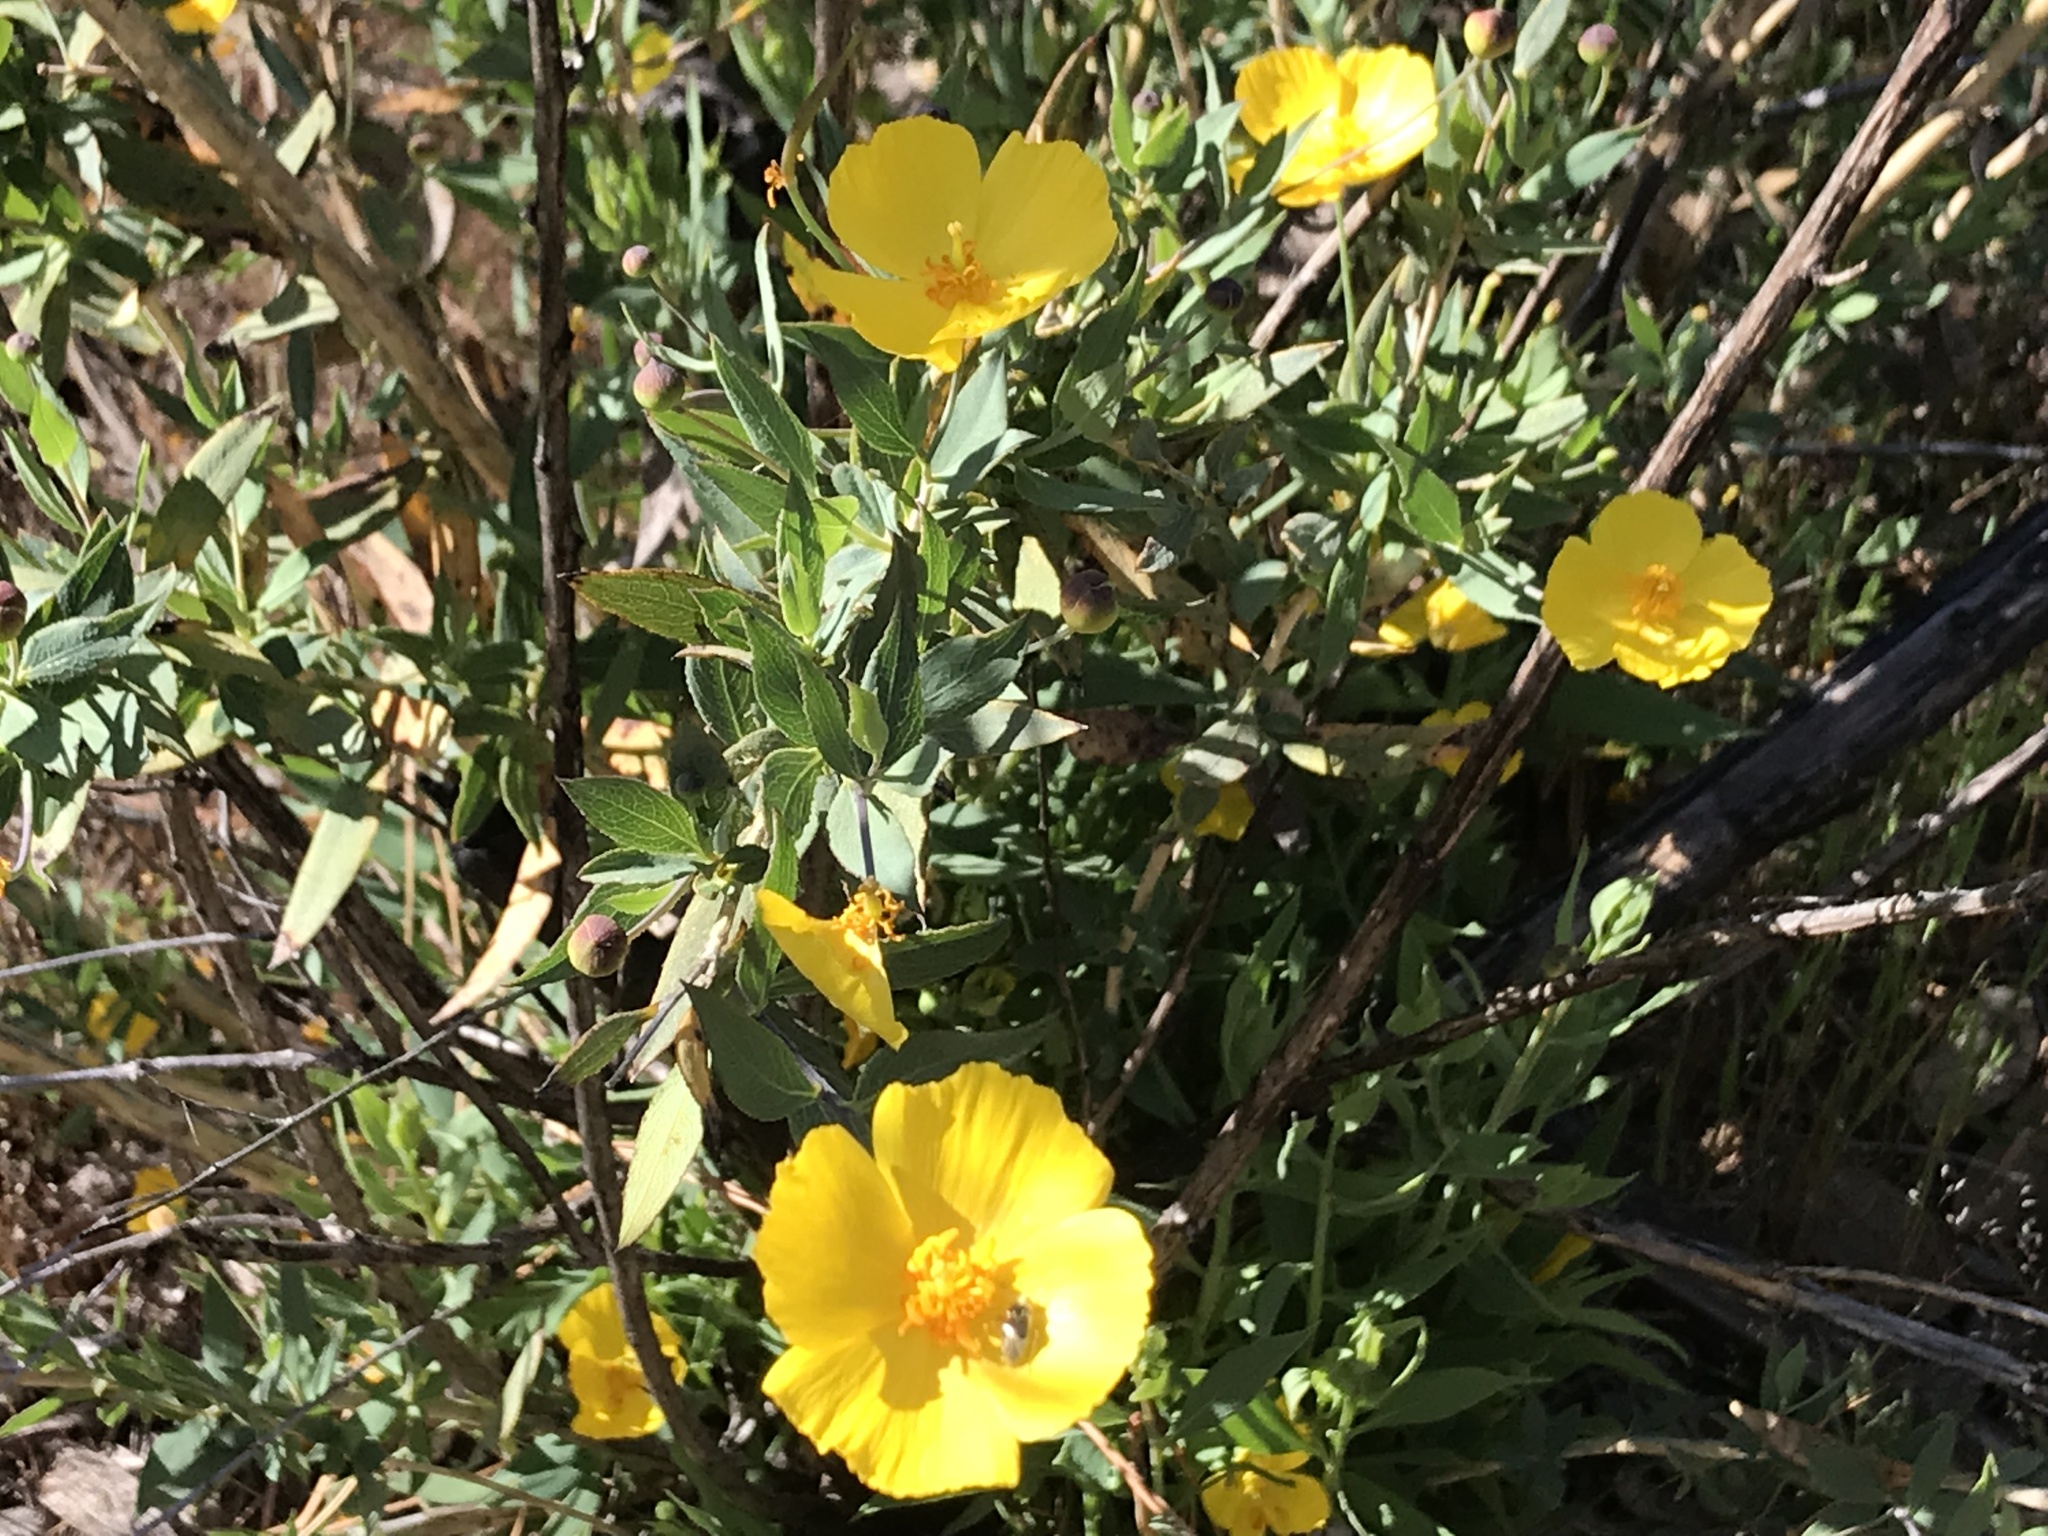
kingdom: Plantae
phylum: Tracheophyta
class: Magnoliopsida
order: Ranunculales
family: Papaveraceae
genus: Dendromecon
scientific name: Dendromecon rigida
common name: Tree poppy
